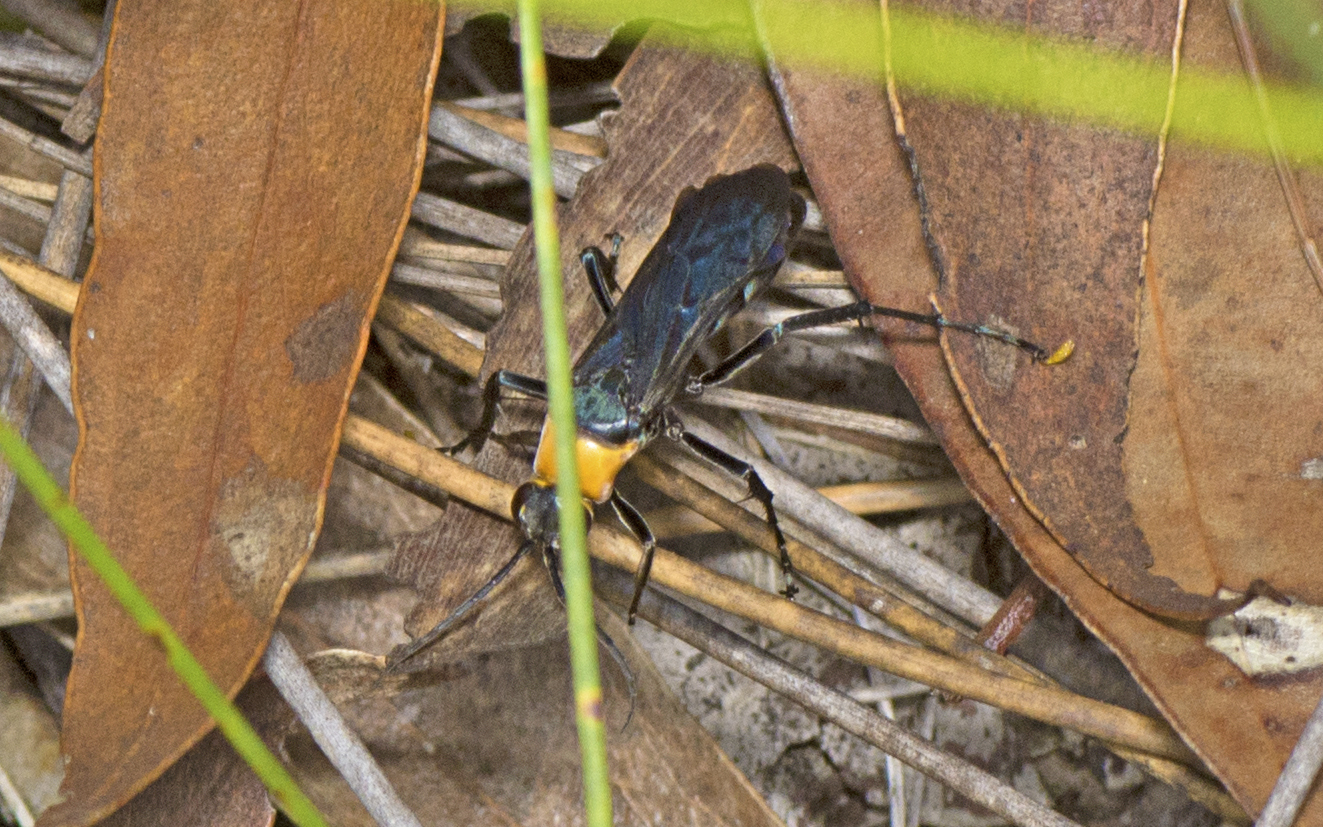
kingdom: Animalia
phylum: Arthropoda
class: Insecta
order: Hymenoptera
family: Pompilidae
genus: Ferreola
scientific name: Ferreola handschini
